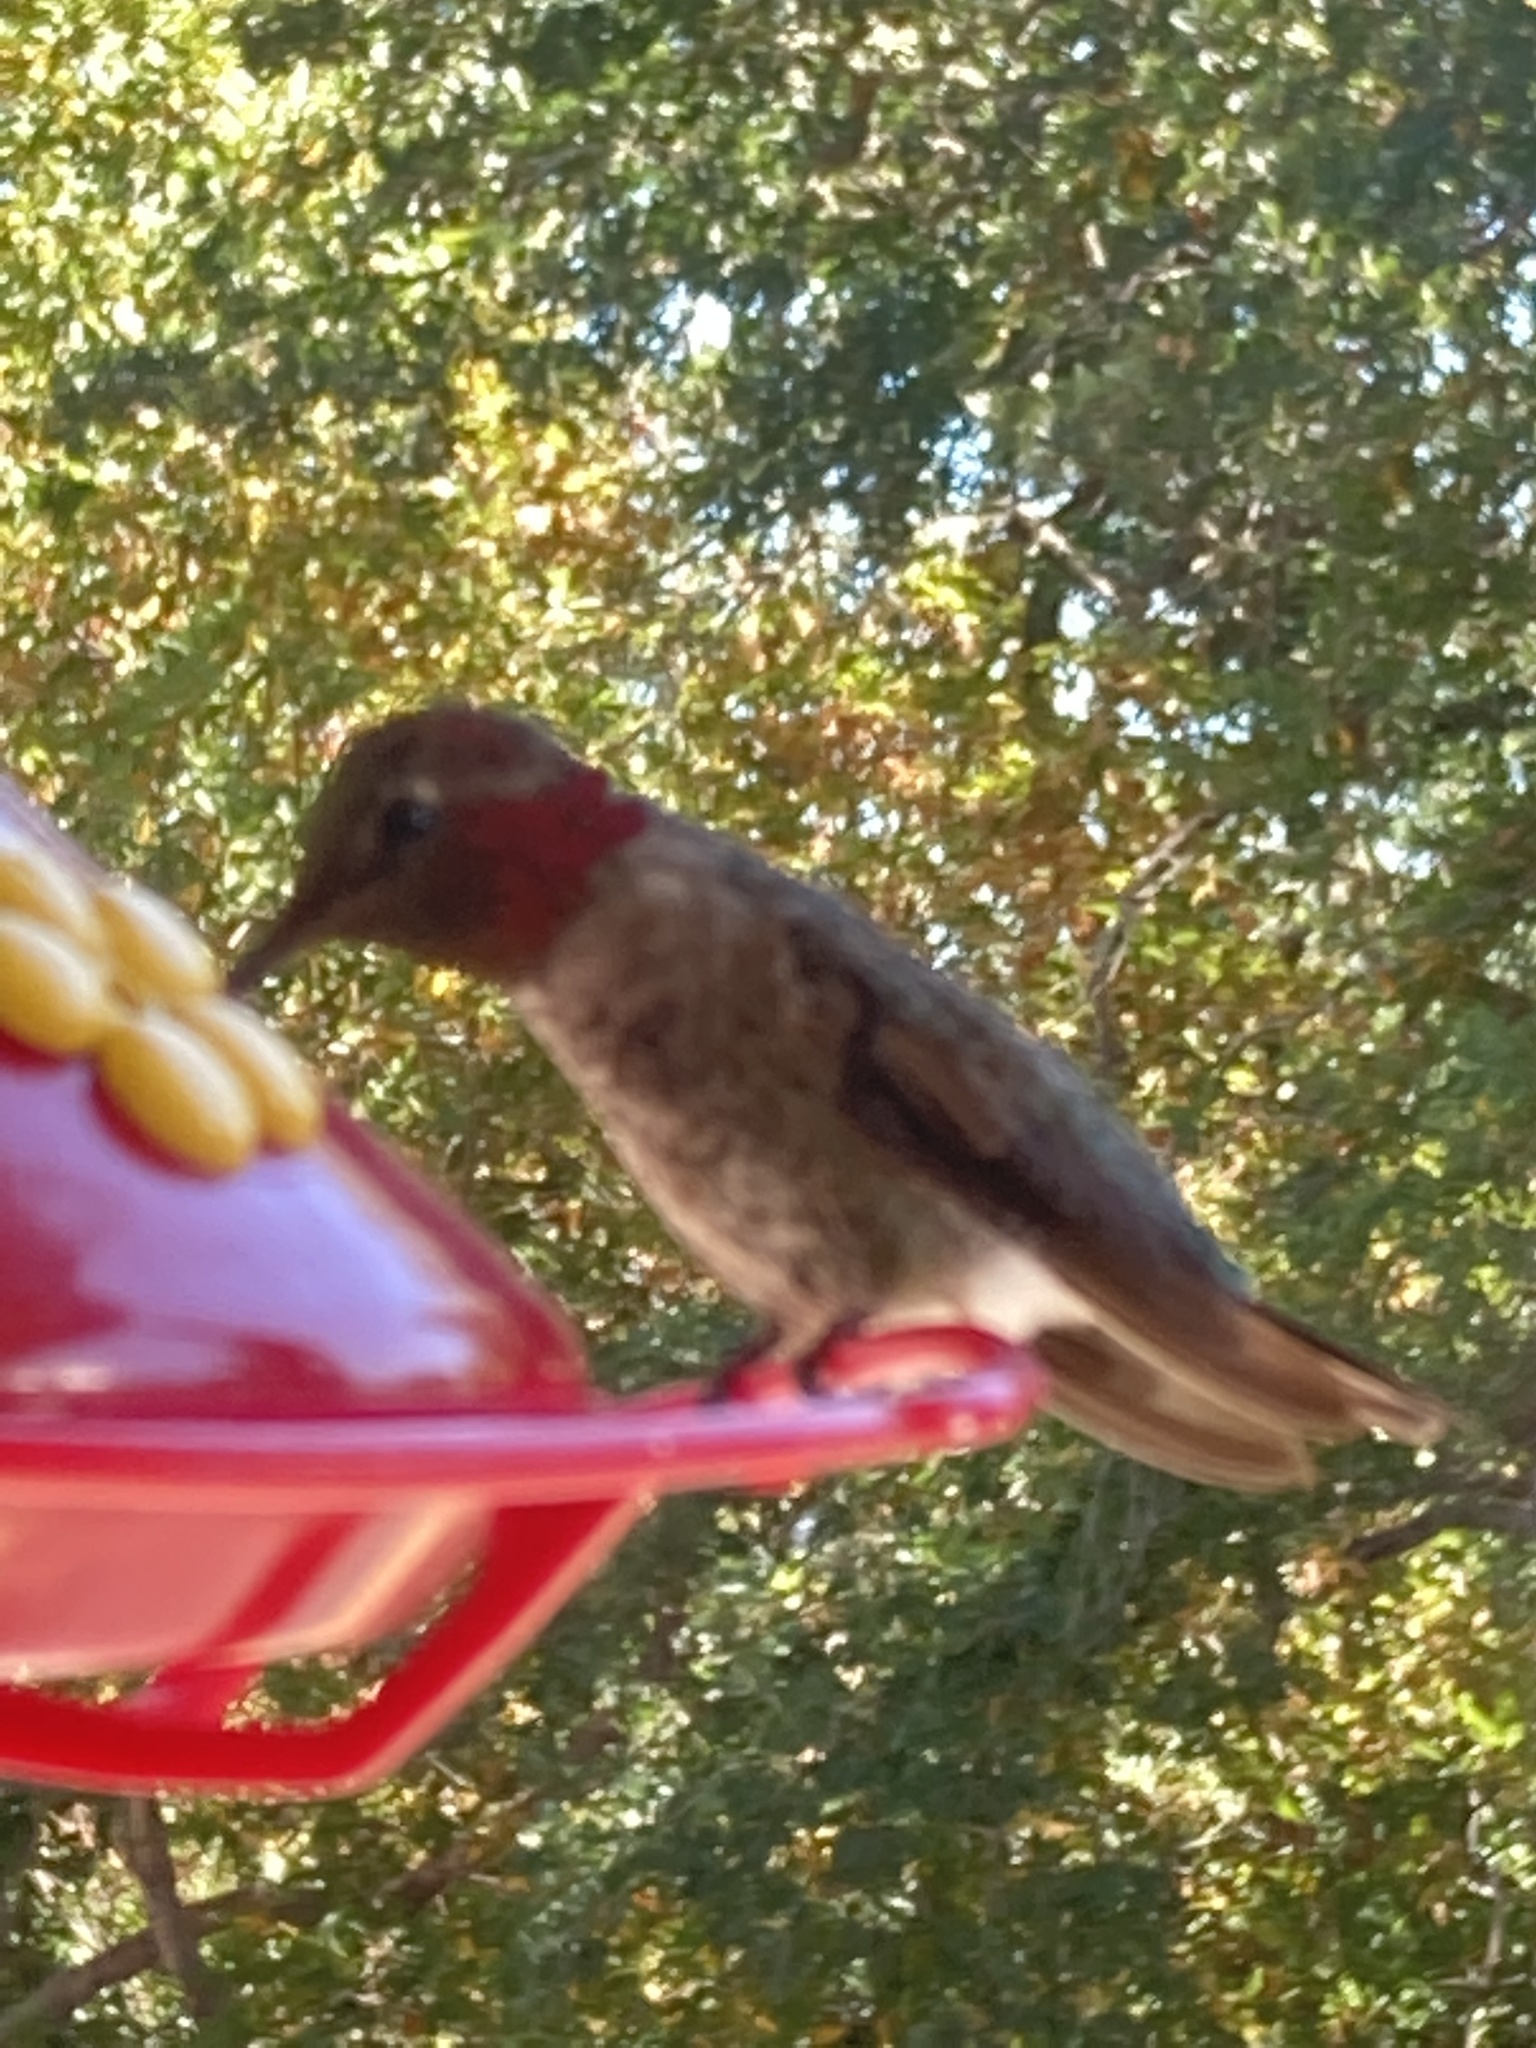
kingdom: Animalia
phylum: Chordata
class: Aves
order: Apodiformes
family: Trochilidae
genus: Calypte
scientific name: Calypte anna
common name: Anna's hummingbird
